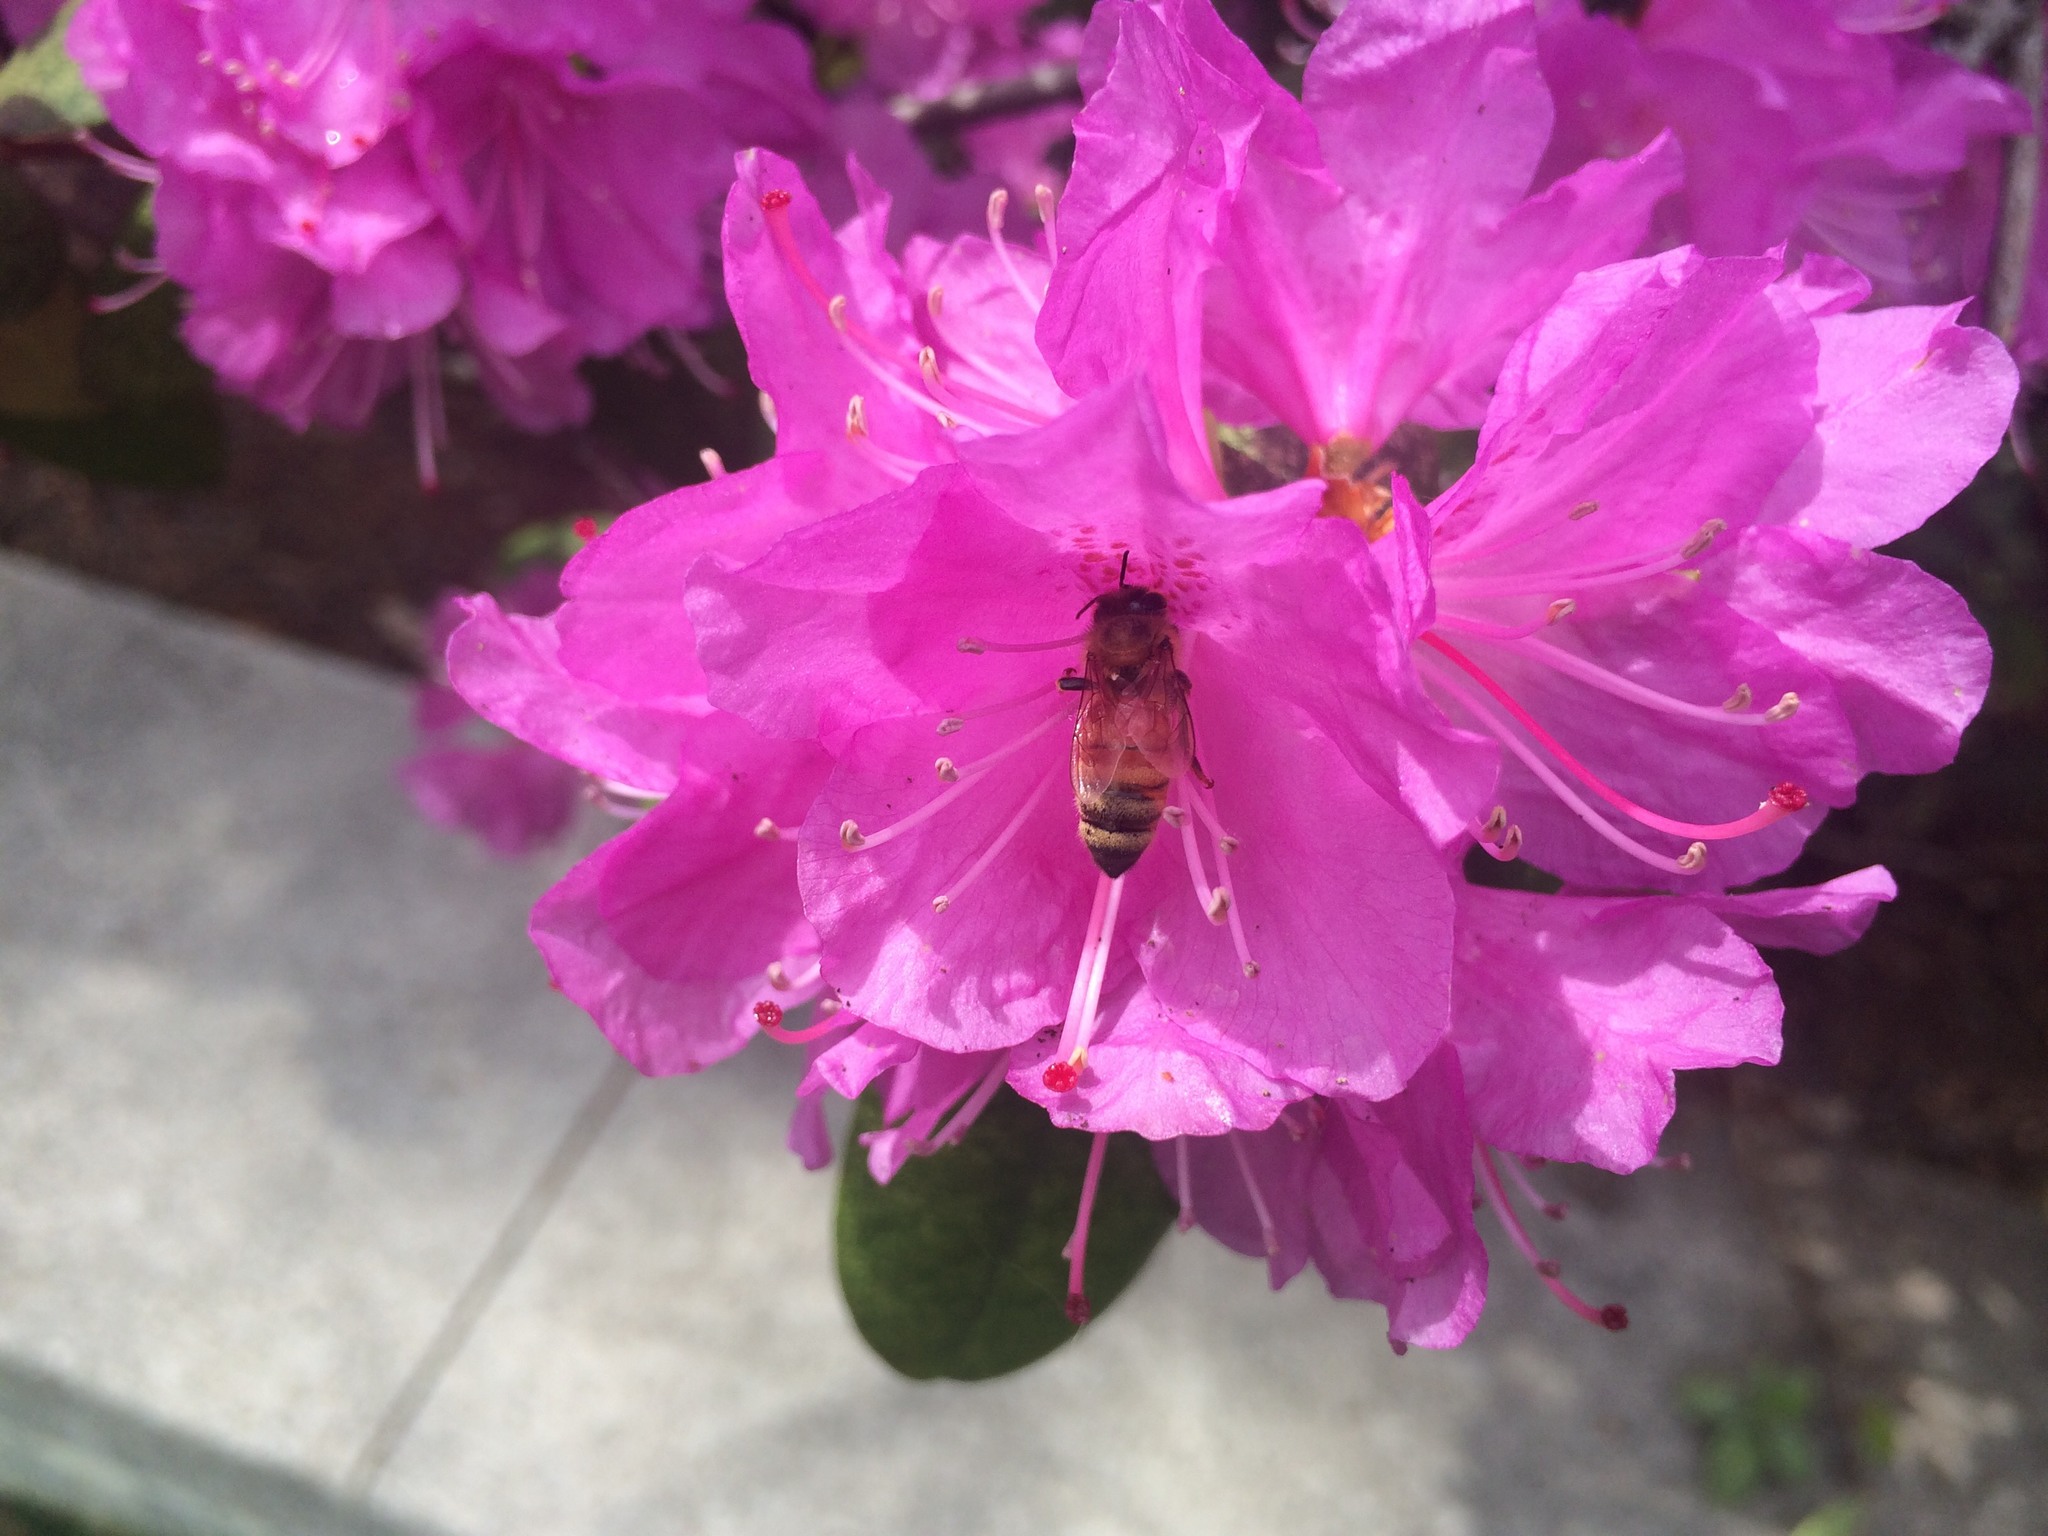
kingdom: Animalia
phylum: Arthropoda
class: Insecta
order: Hymenoptera
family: Apidae
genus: Apis
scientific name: Apis mellifera
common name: Honey bee
